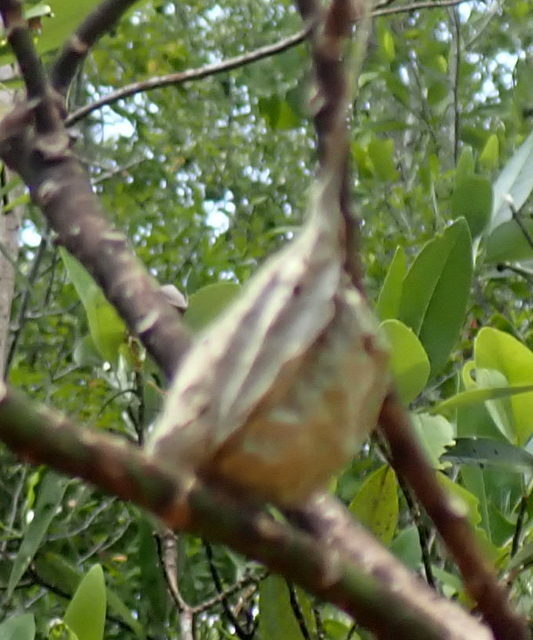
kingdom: Animalia
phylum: Arthropoda
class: Insecta
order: Lepidoptera
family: Saturniidae
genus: Antheraea
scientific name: Antheraea polyphemus
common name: Polyphemus moth
